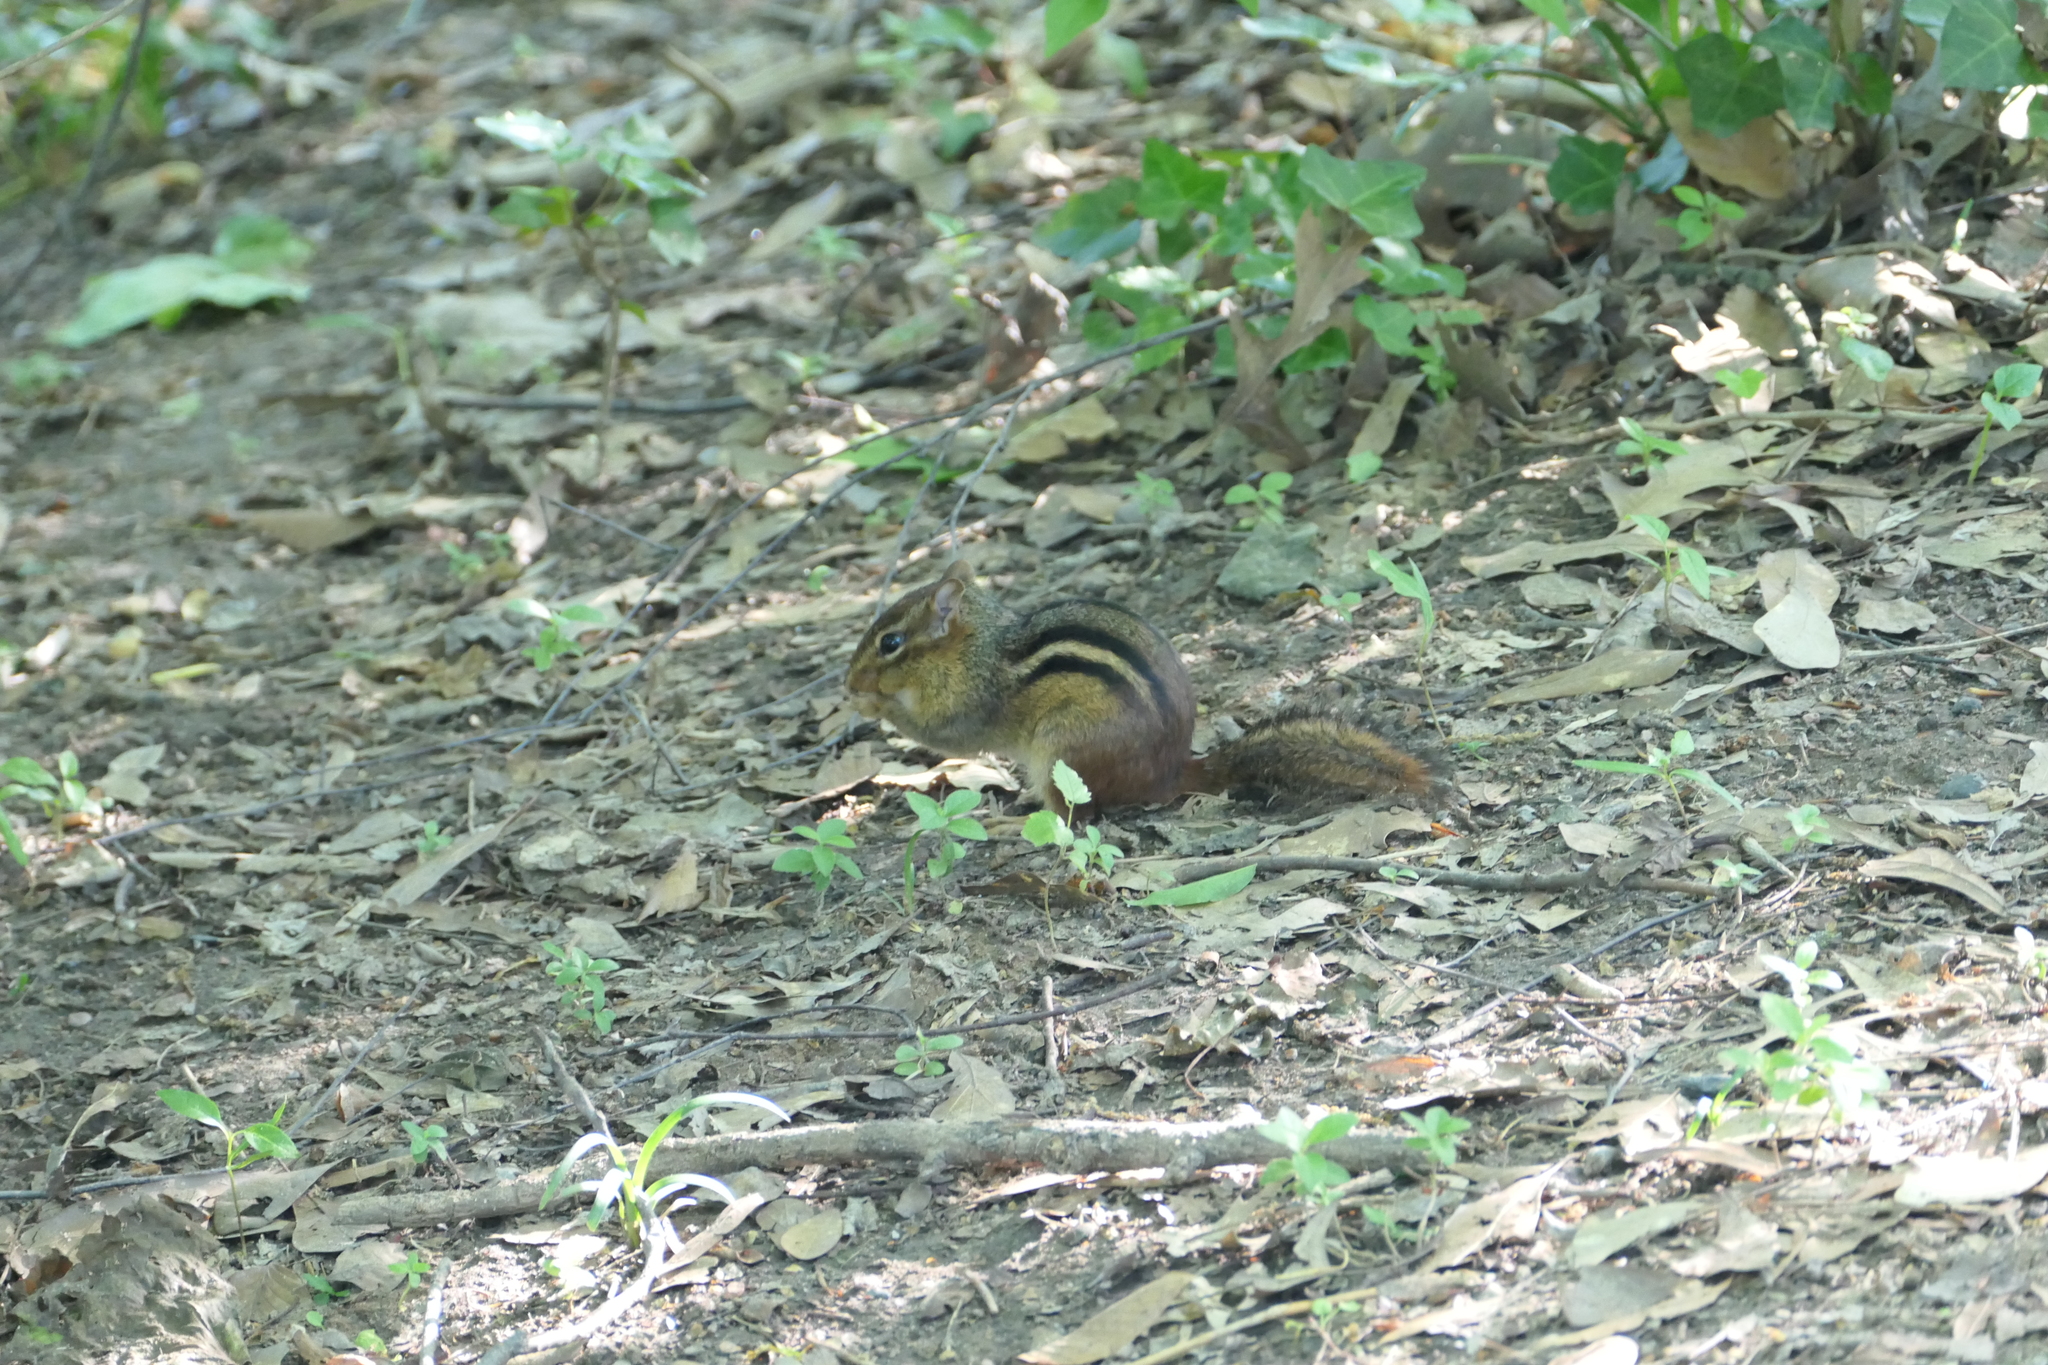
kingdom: Animalia
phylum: Chordata
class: Mammalia
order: Rodentia
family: Sciuridae
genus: Tamias
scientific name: Tamias striatus
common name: Eastern chipmunk
